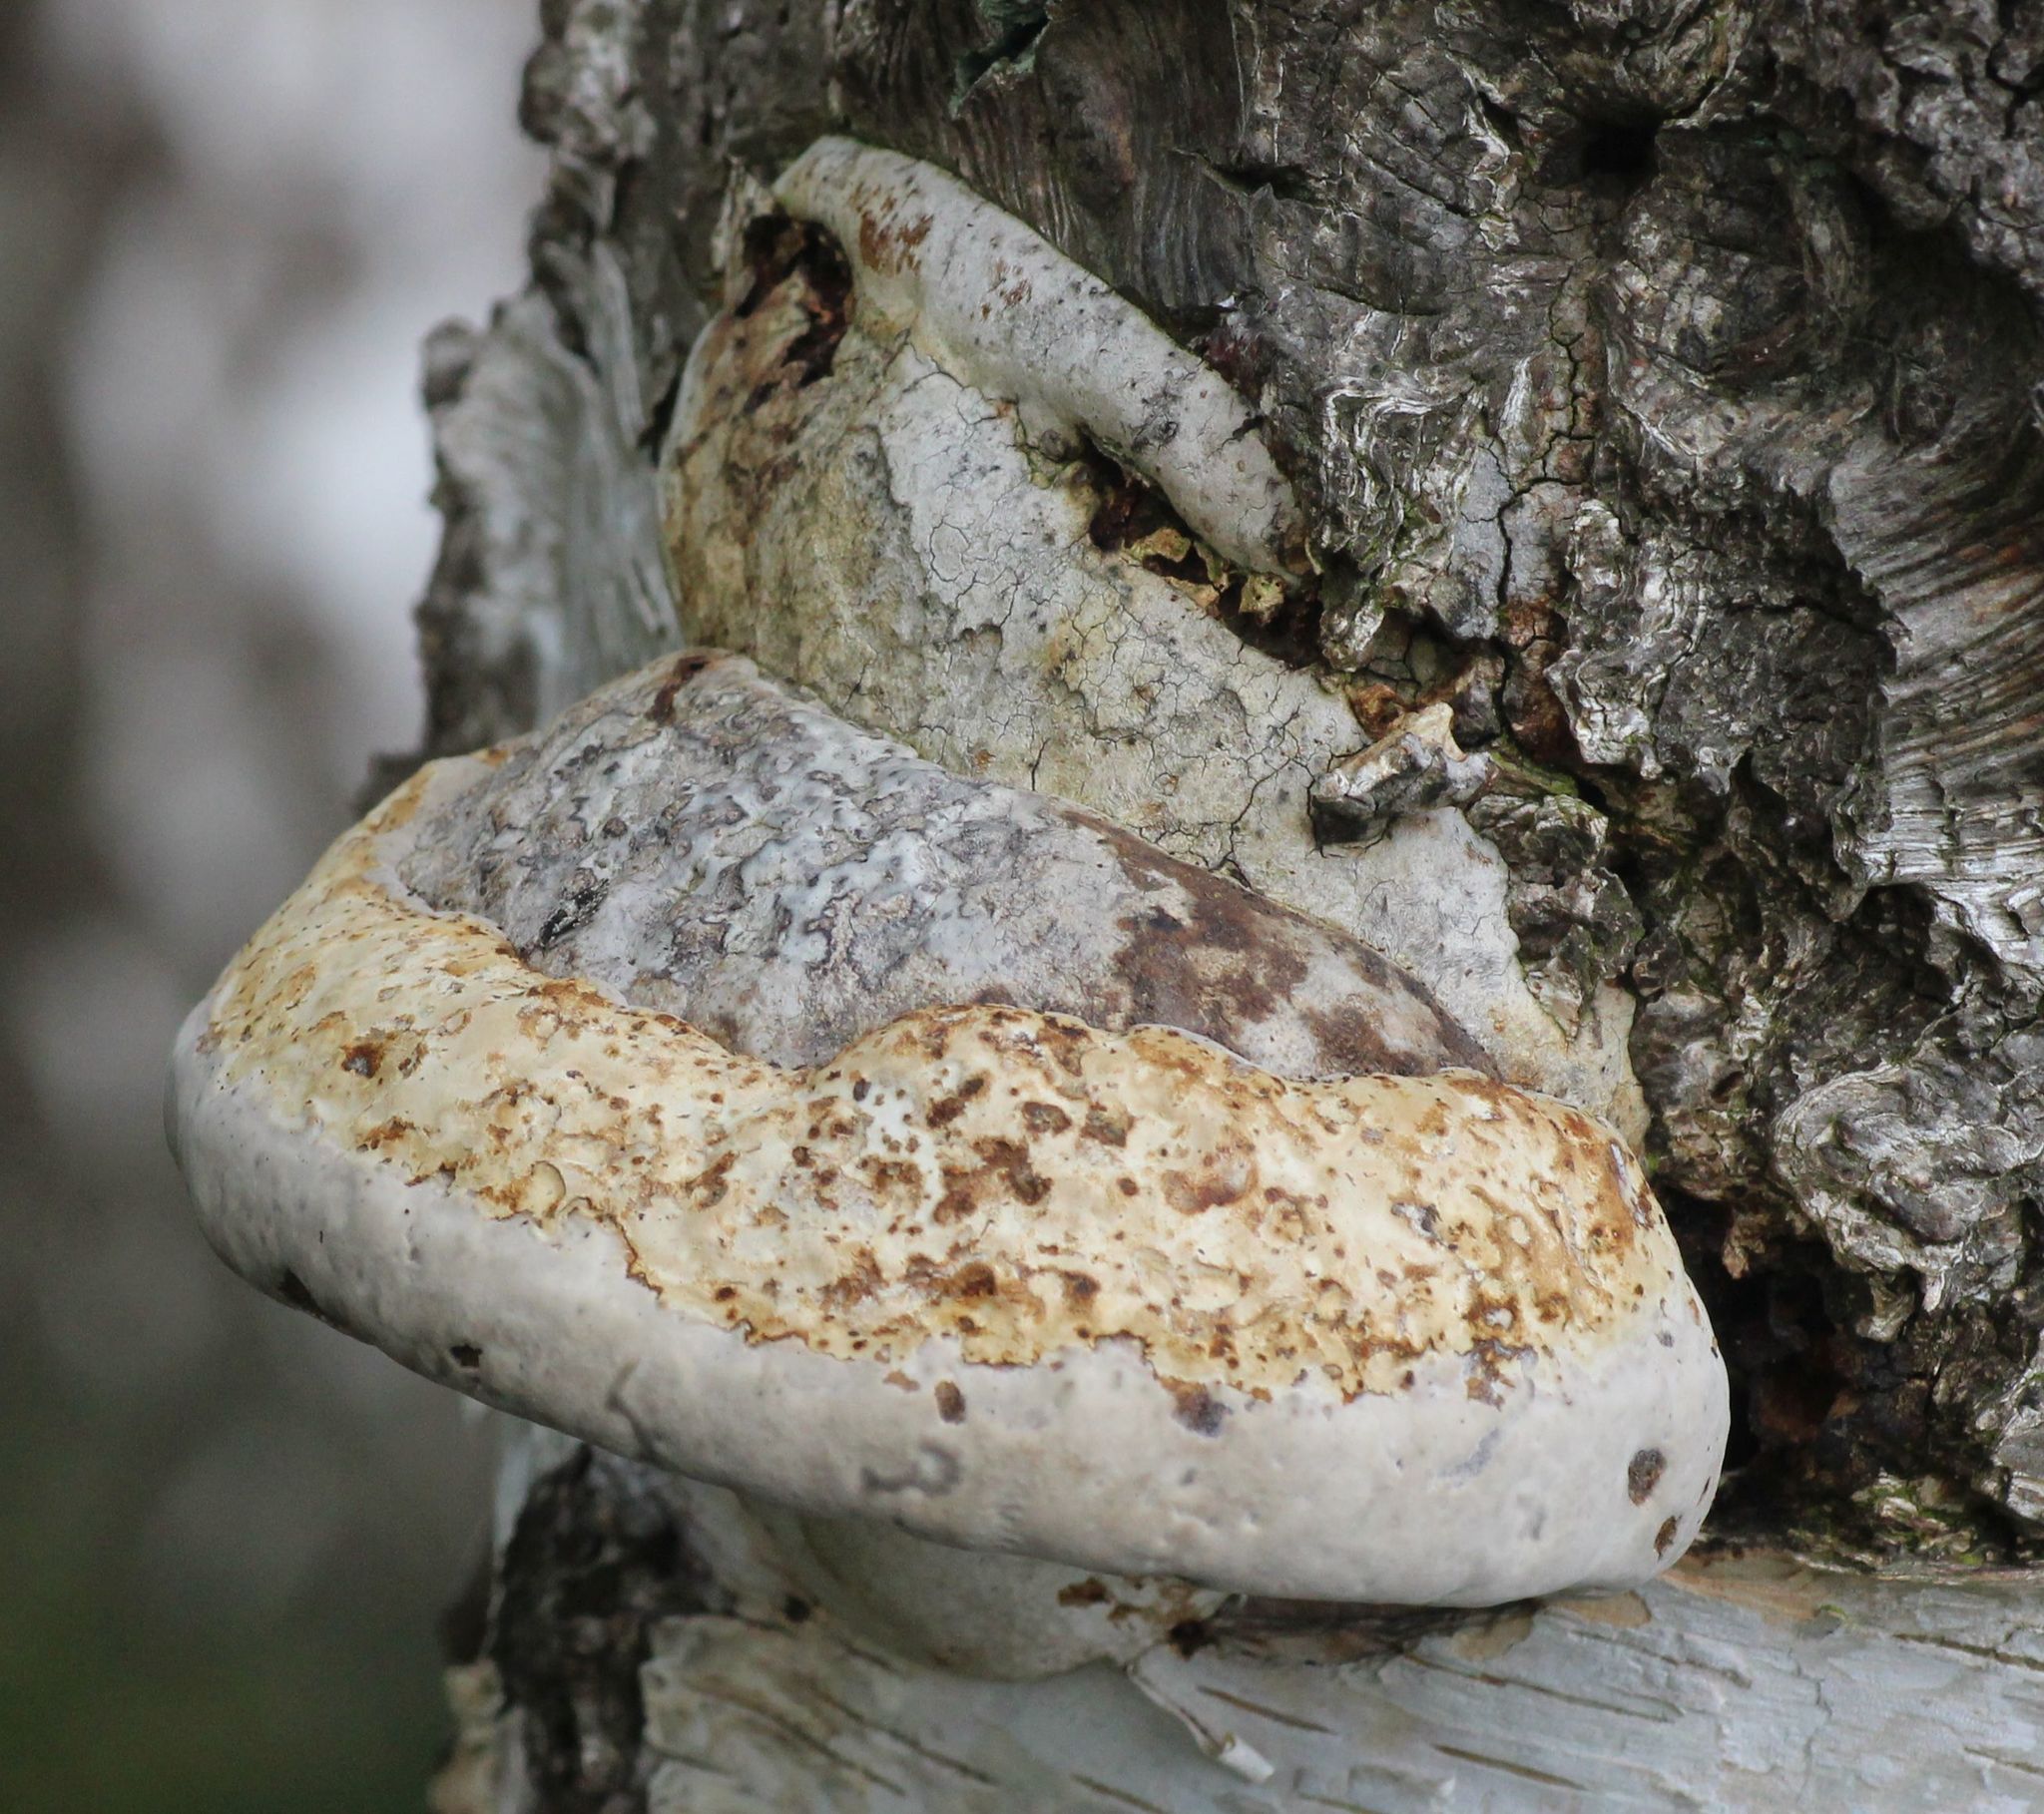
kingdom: Fungi
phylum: Basidiomycota
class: Agaricomycetes
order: Polyporales
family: Polyporaceae
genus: Fomes
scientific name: Fomes fomentarius
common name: Hoof fungus
